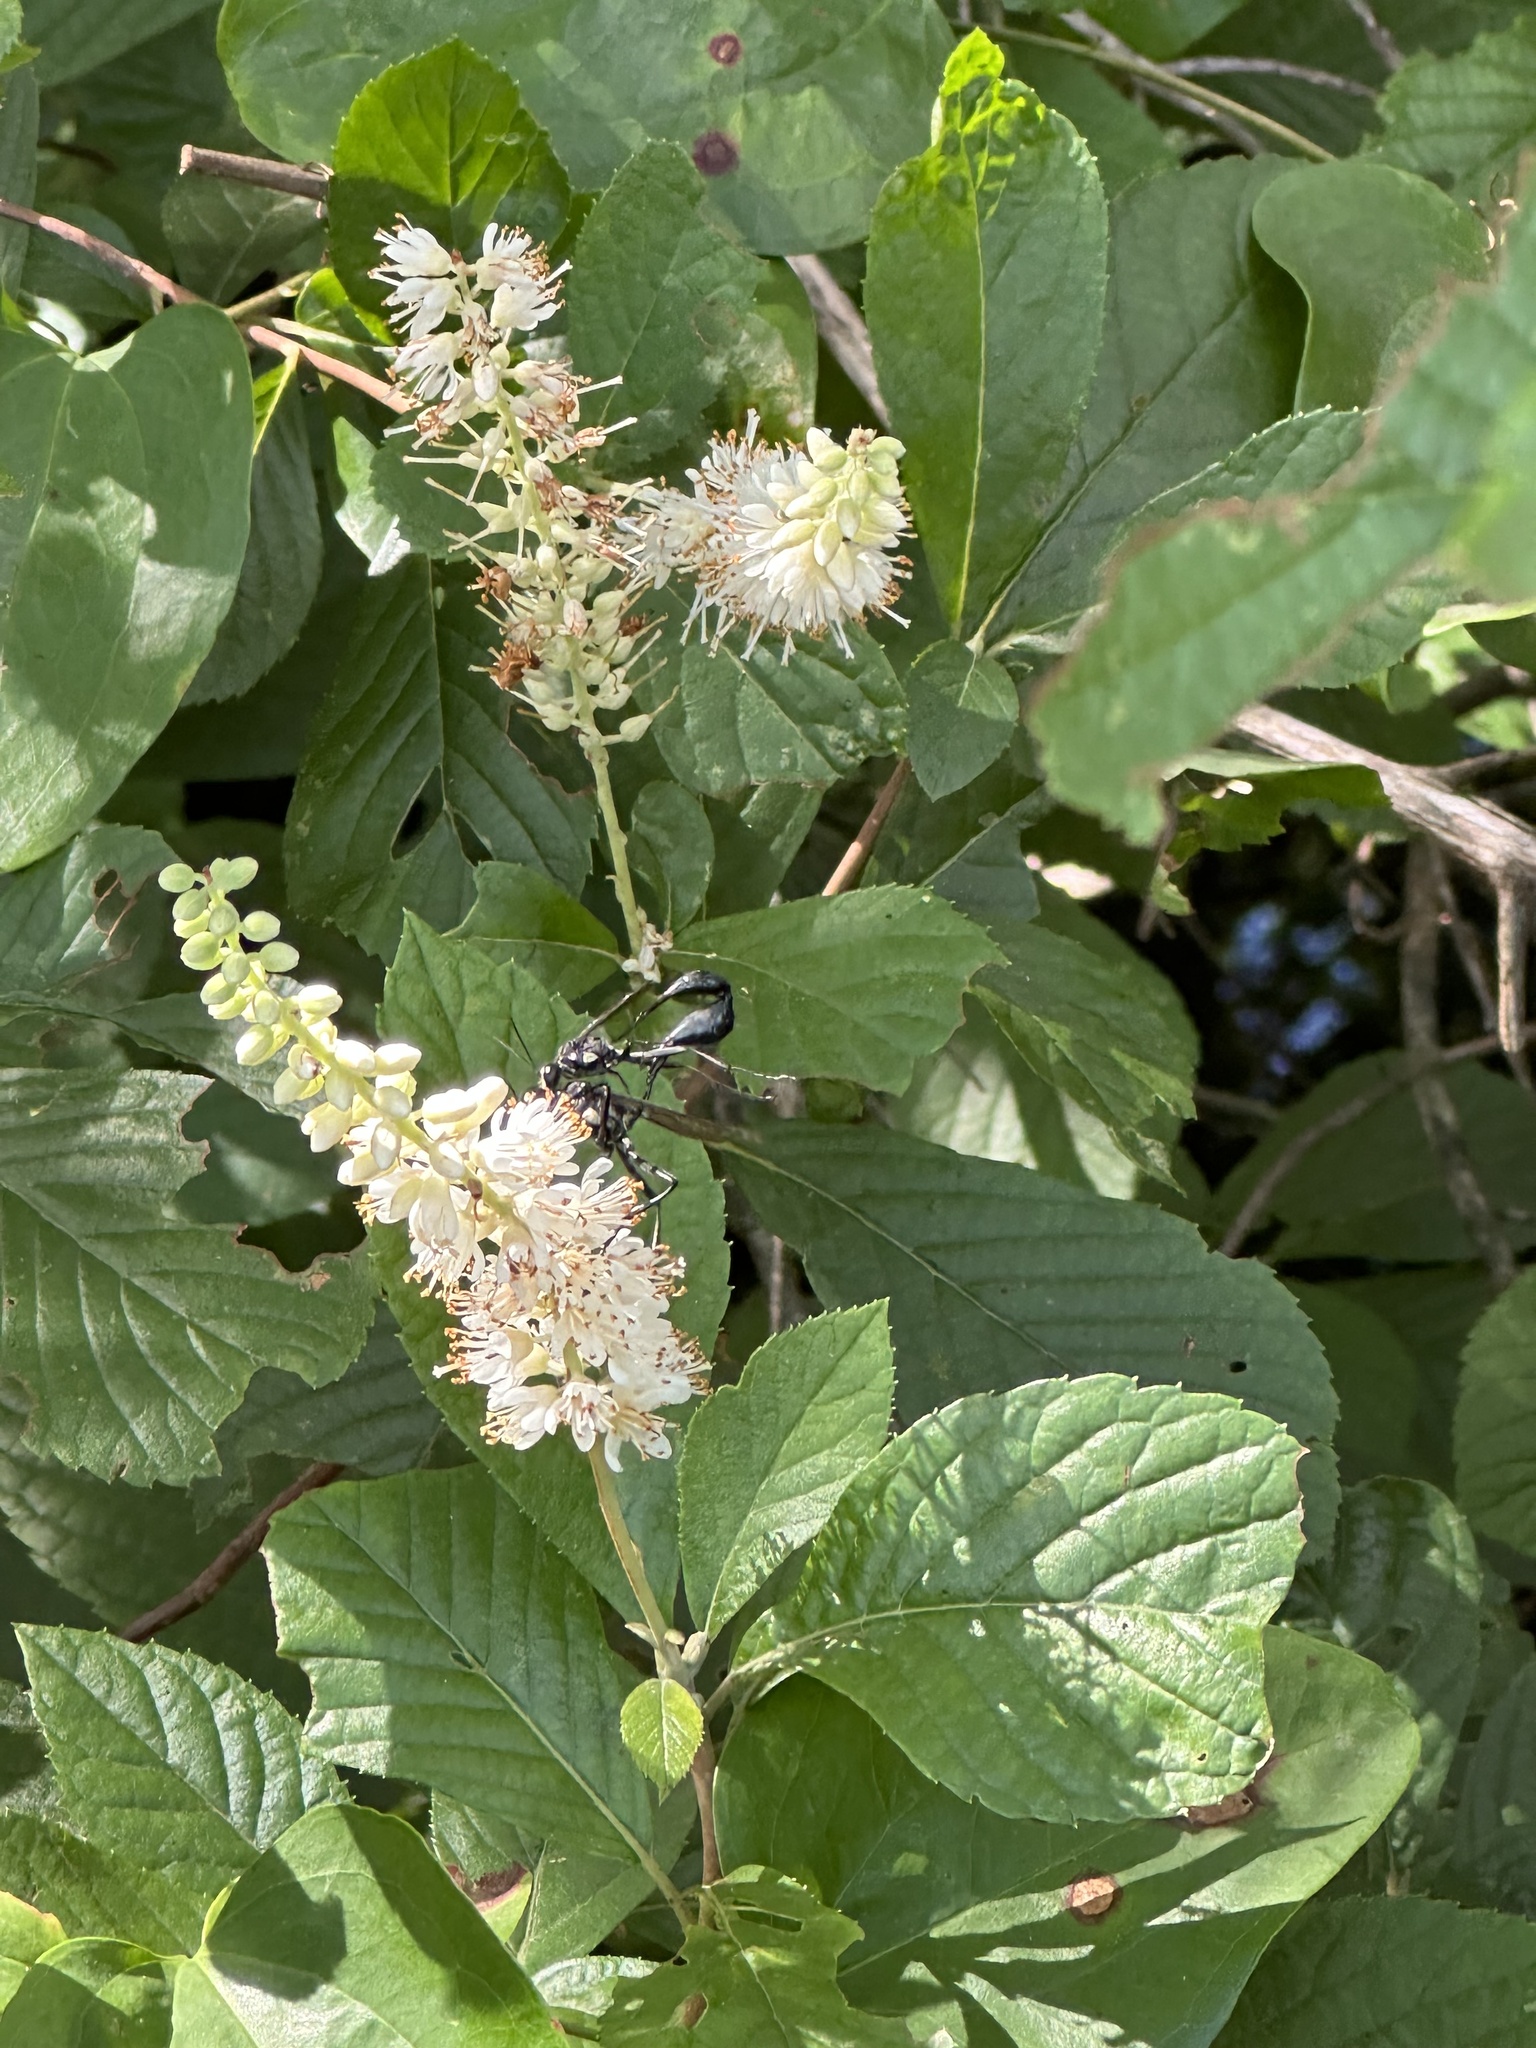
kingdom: Plantae
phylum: Tracheophyta
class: Magnoliopsida
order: Ericales
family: Clethraceae
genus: Clethra
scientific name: Clethra alnifolia
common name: Sweet pepperbush
